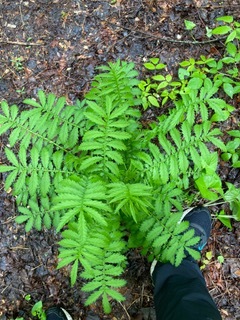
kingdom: Plantae
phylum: Tracheophyta
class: Magnoliopsida
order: Rosales
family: Rosaceae
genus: Agrimonia
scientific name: Agrimonia parviflora
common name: Harvest-lice
